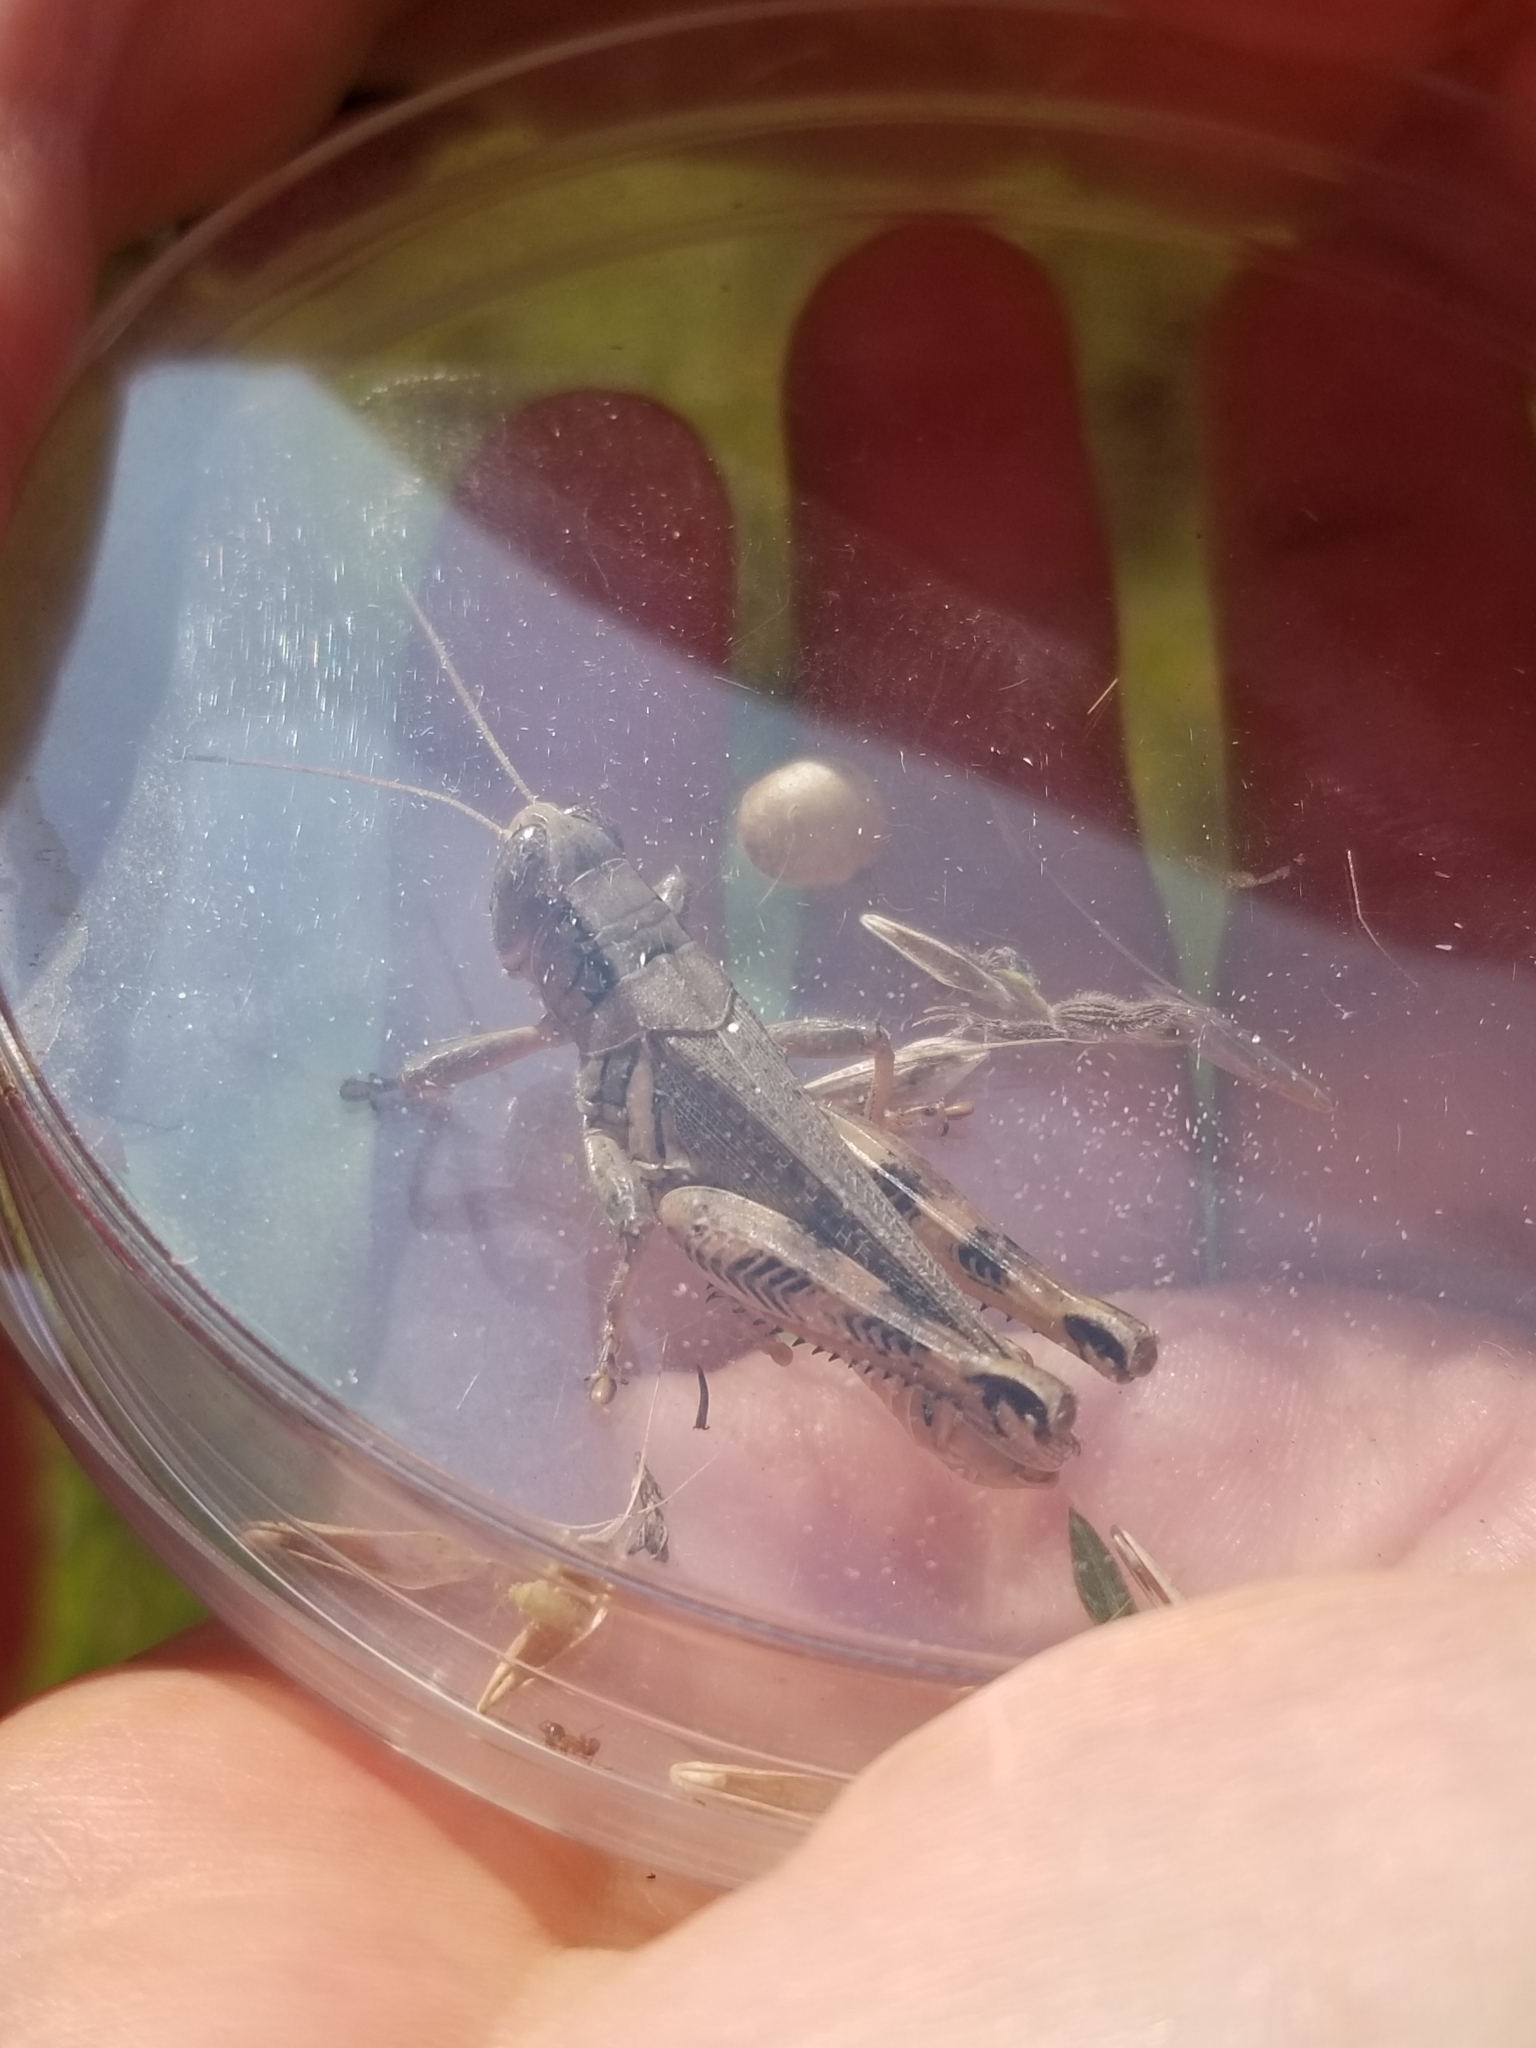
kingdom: Animalia
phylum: Arthropoda
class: Insecta
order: Orthoptera
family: Acrididae
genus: Melanoplus
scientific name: Melanoplus ponderosus
